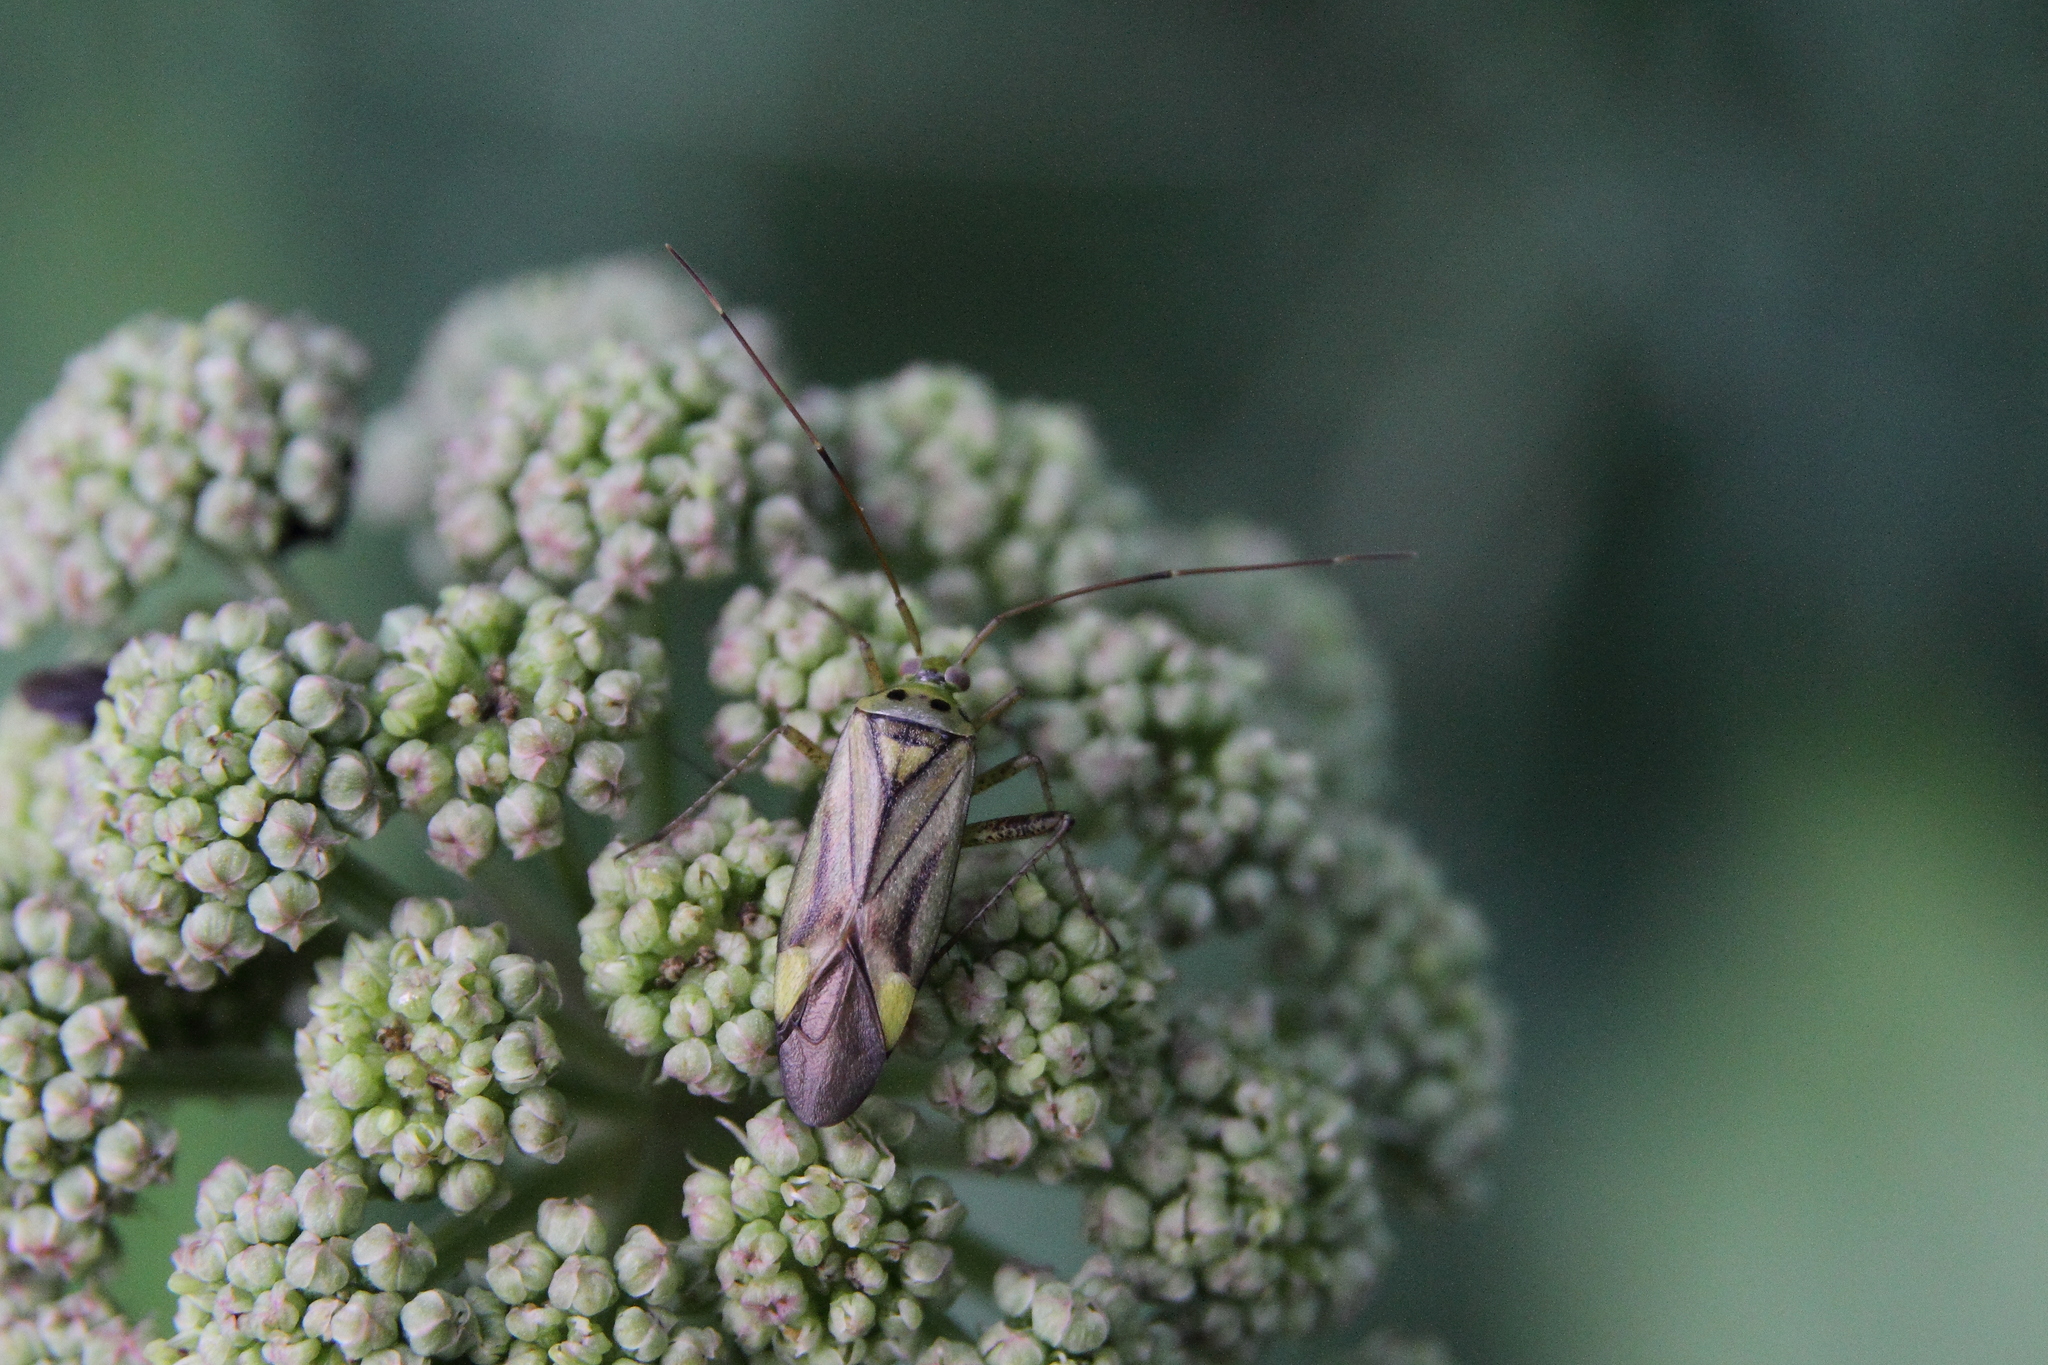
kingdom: Animalia
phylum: Arthropoda
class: Insecta
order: Hemiptera
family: Miridae
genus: Adelphocoris
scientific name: Adelphocoris quadripunctatus
